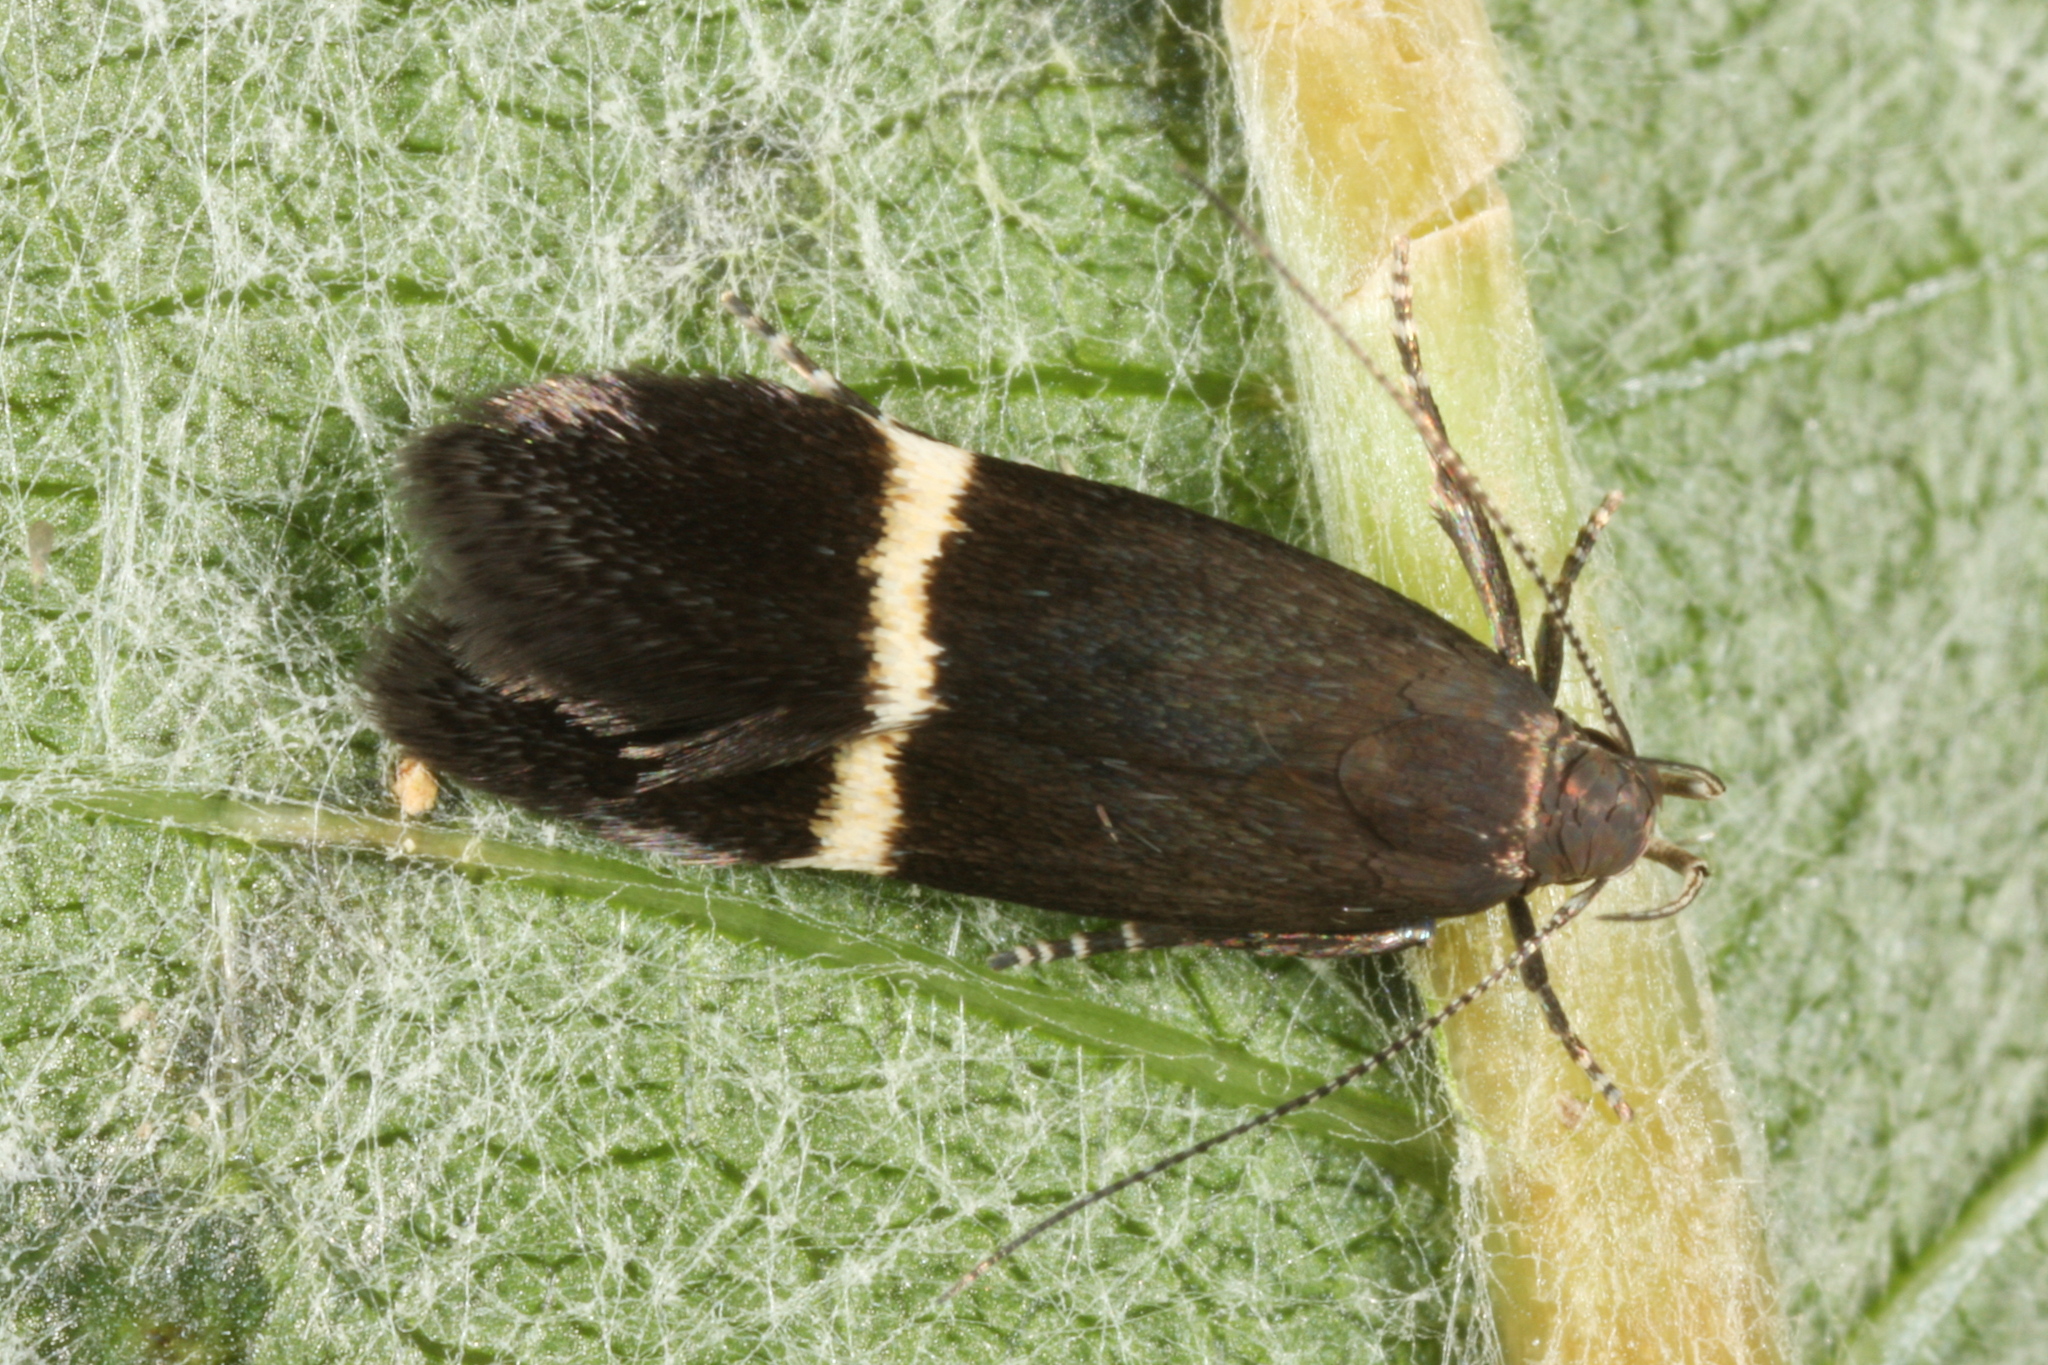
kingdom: Animalia
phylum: Arthropoda
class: Insecta
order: Lepidoptera
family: Gelechiidae
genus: Aproaerema
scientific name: Aproaerema taeniolella
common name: Silver-barred sober
